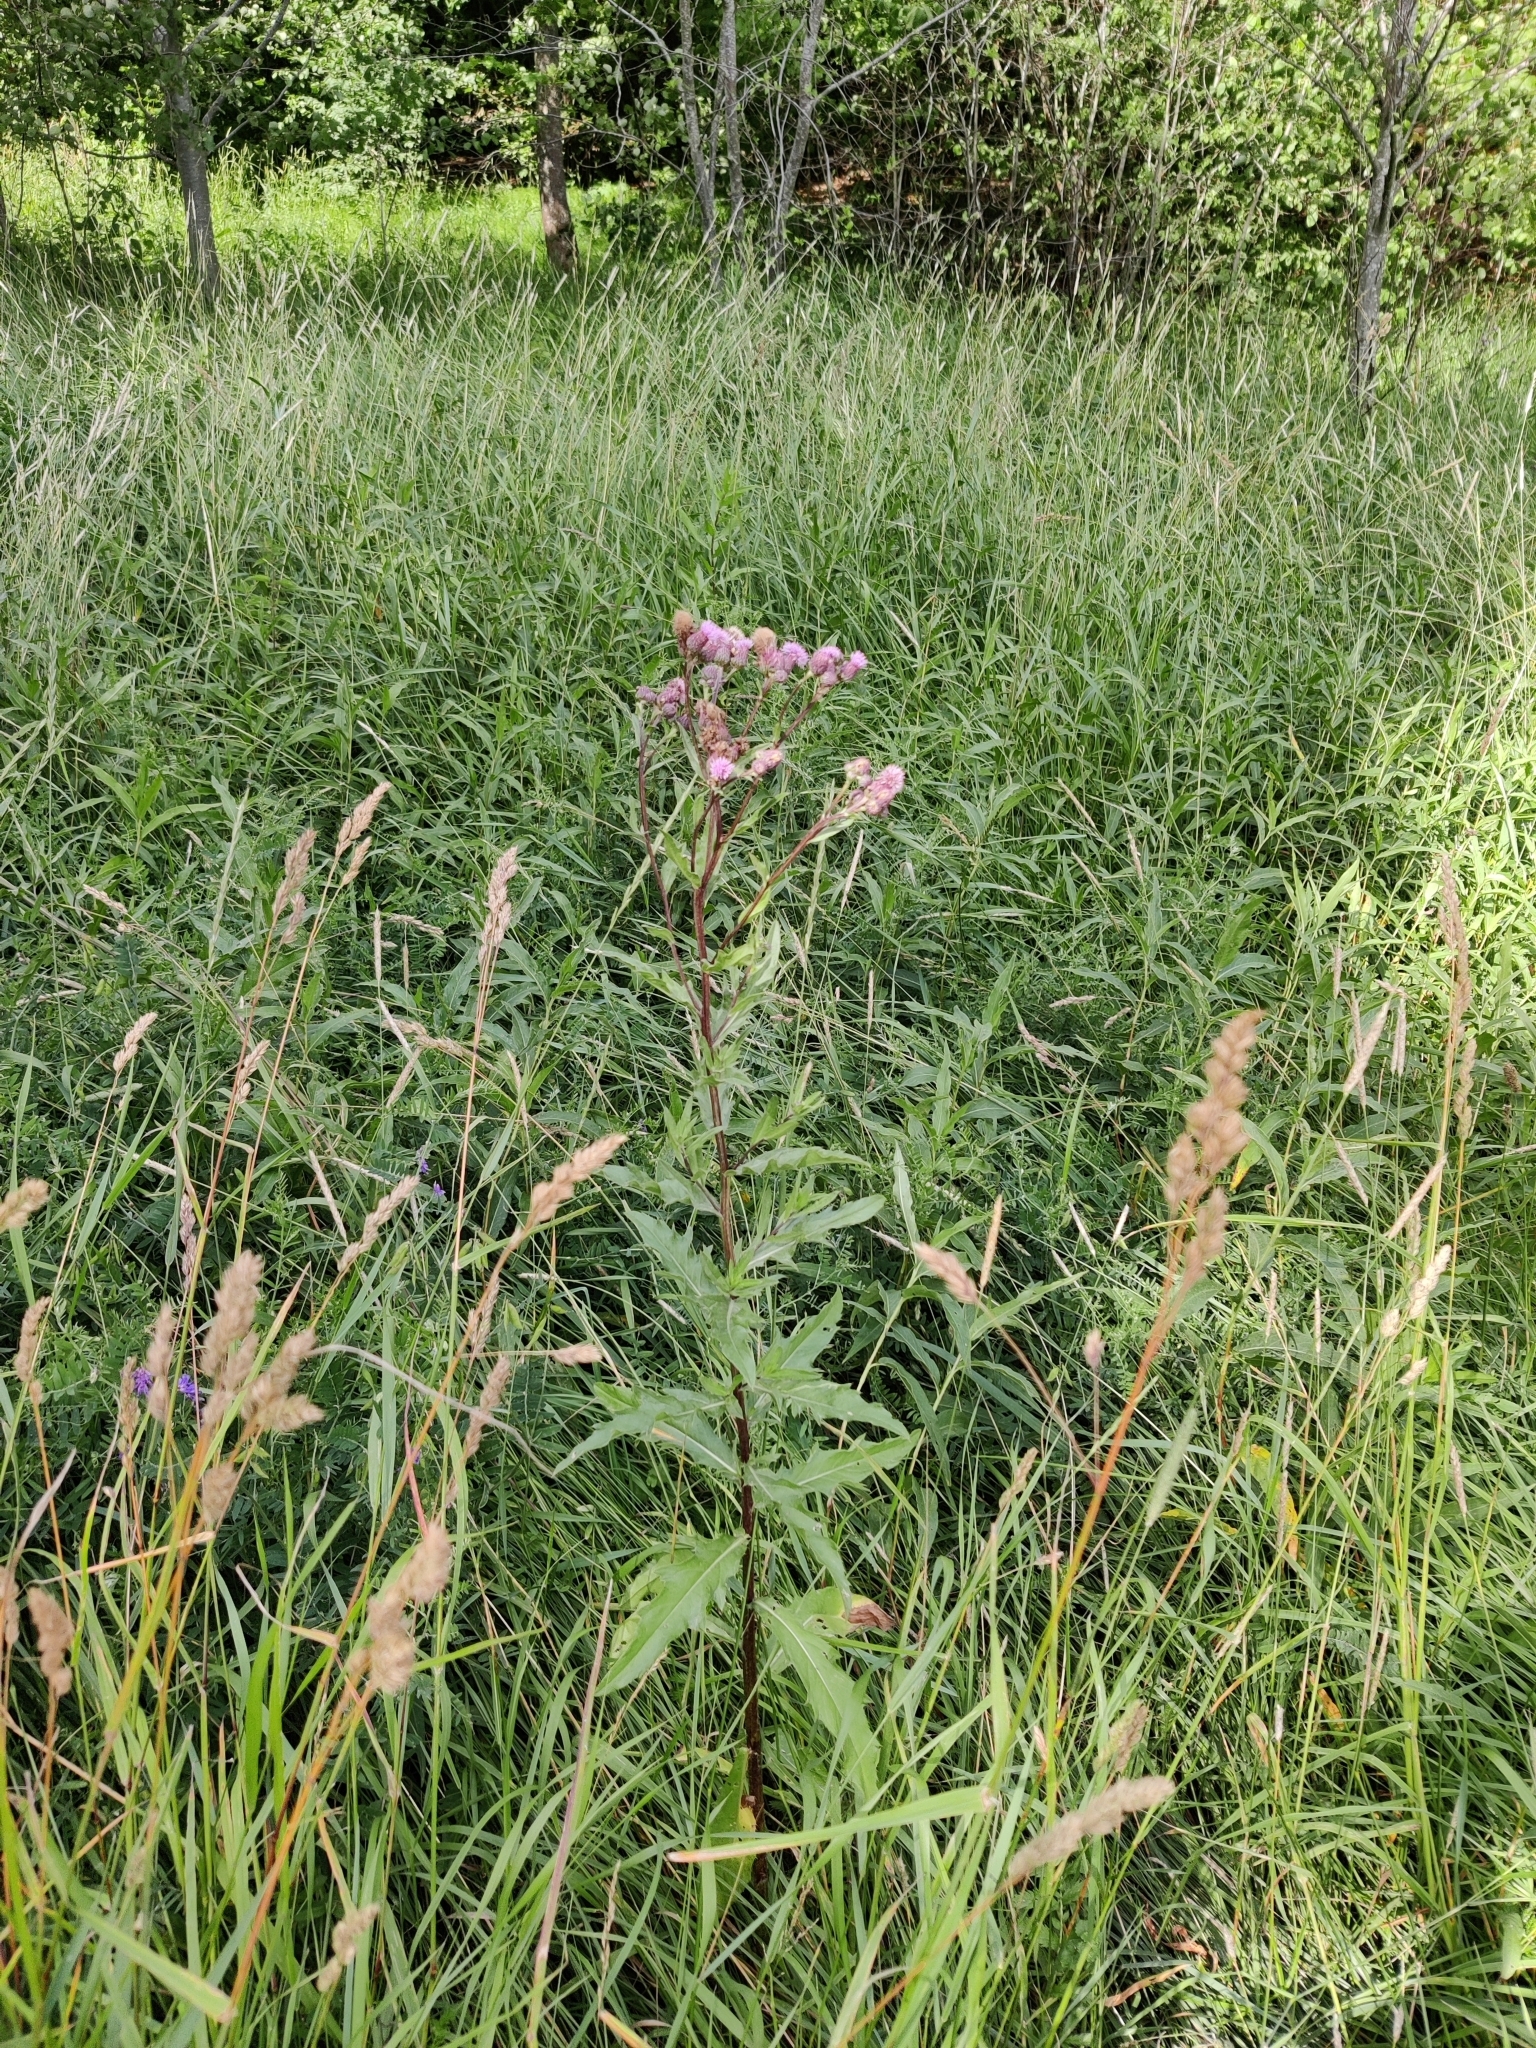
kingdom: Plantae
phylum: Tracheophyta
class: Magnoliopsida
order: Asterales
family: Asteraceae
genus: Cirsium
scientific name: Cirsium arvense
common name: Creeping thistle
